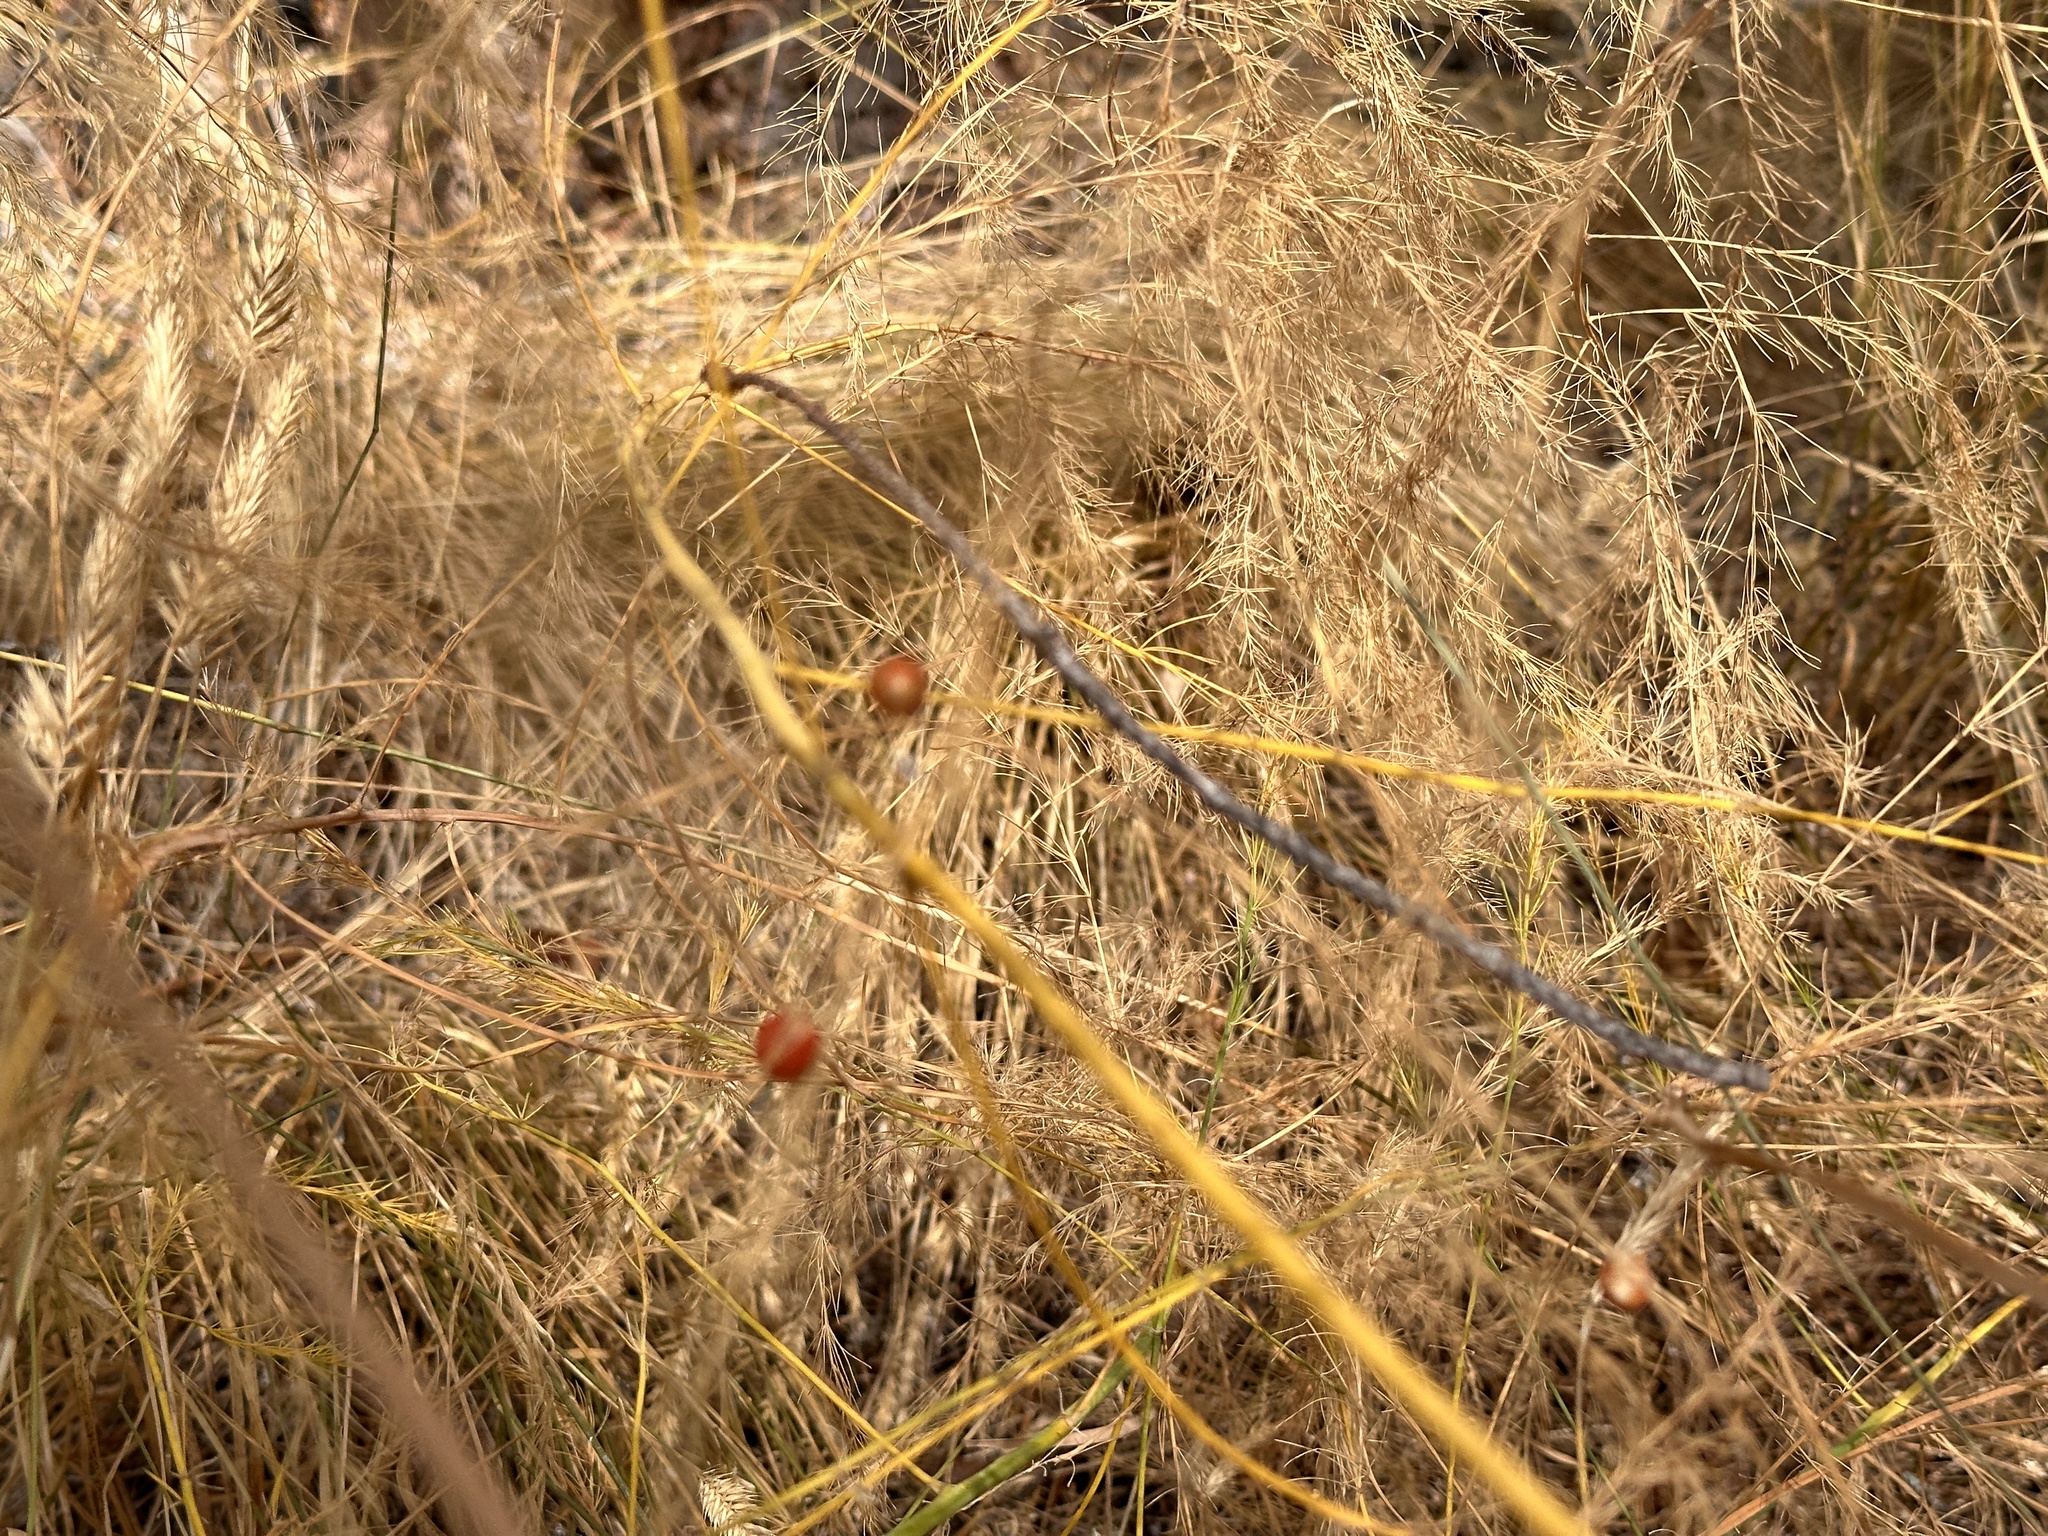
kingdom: Plantae
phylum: Tracheophyta
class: Liliopsida
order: Asparagales
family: Asparagaceae
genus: Asparagus
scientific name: Asparagus officinalis
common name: Garden asparagus
